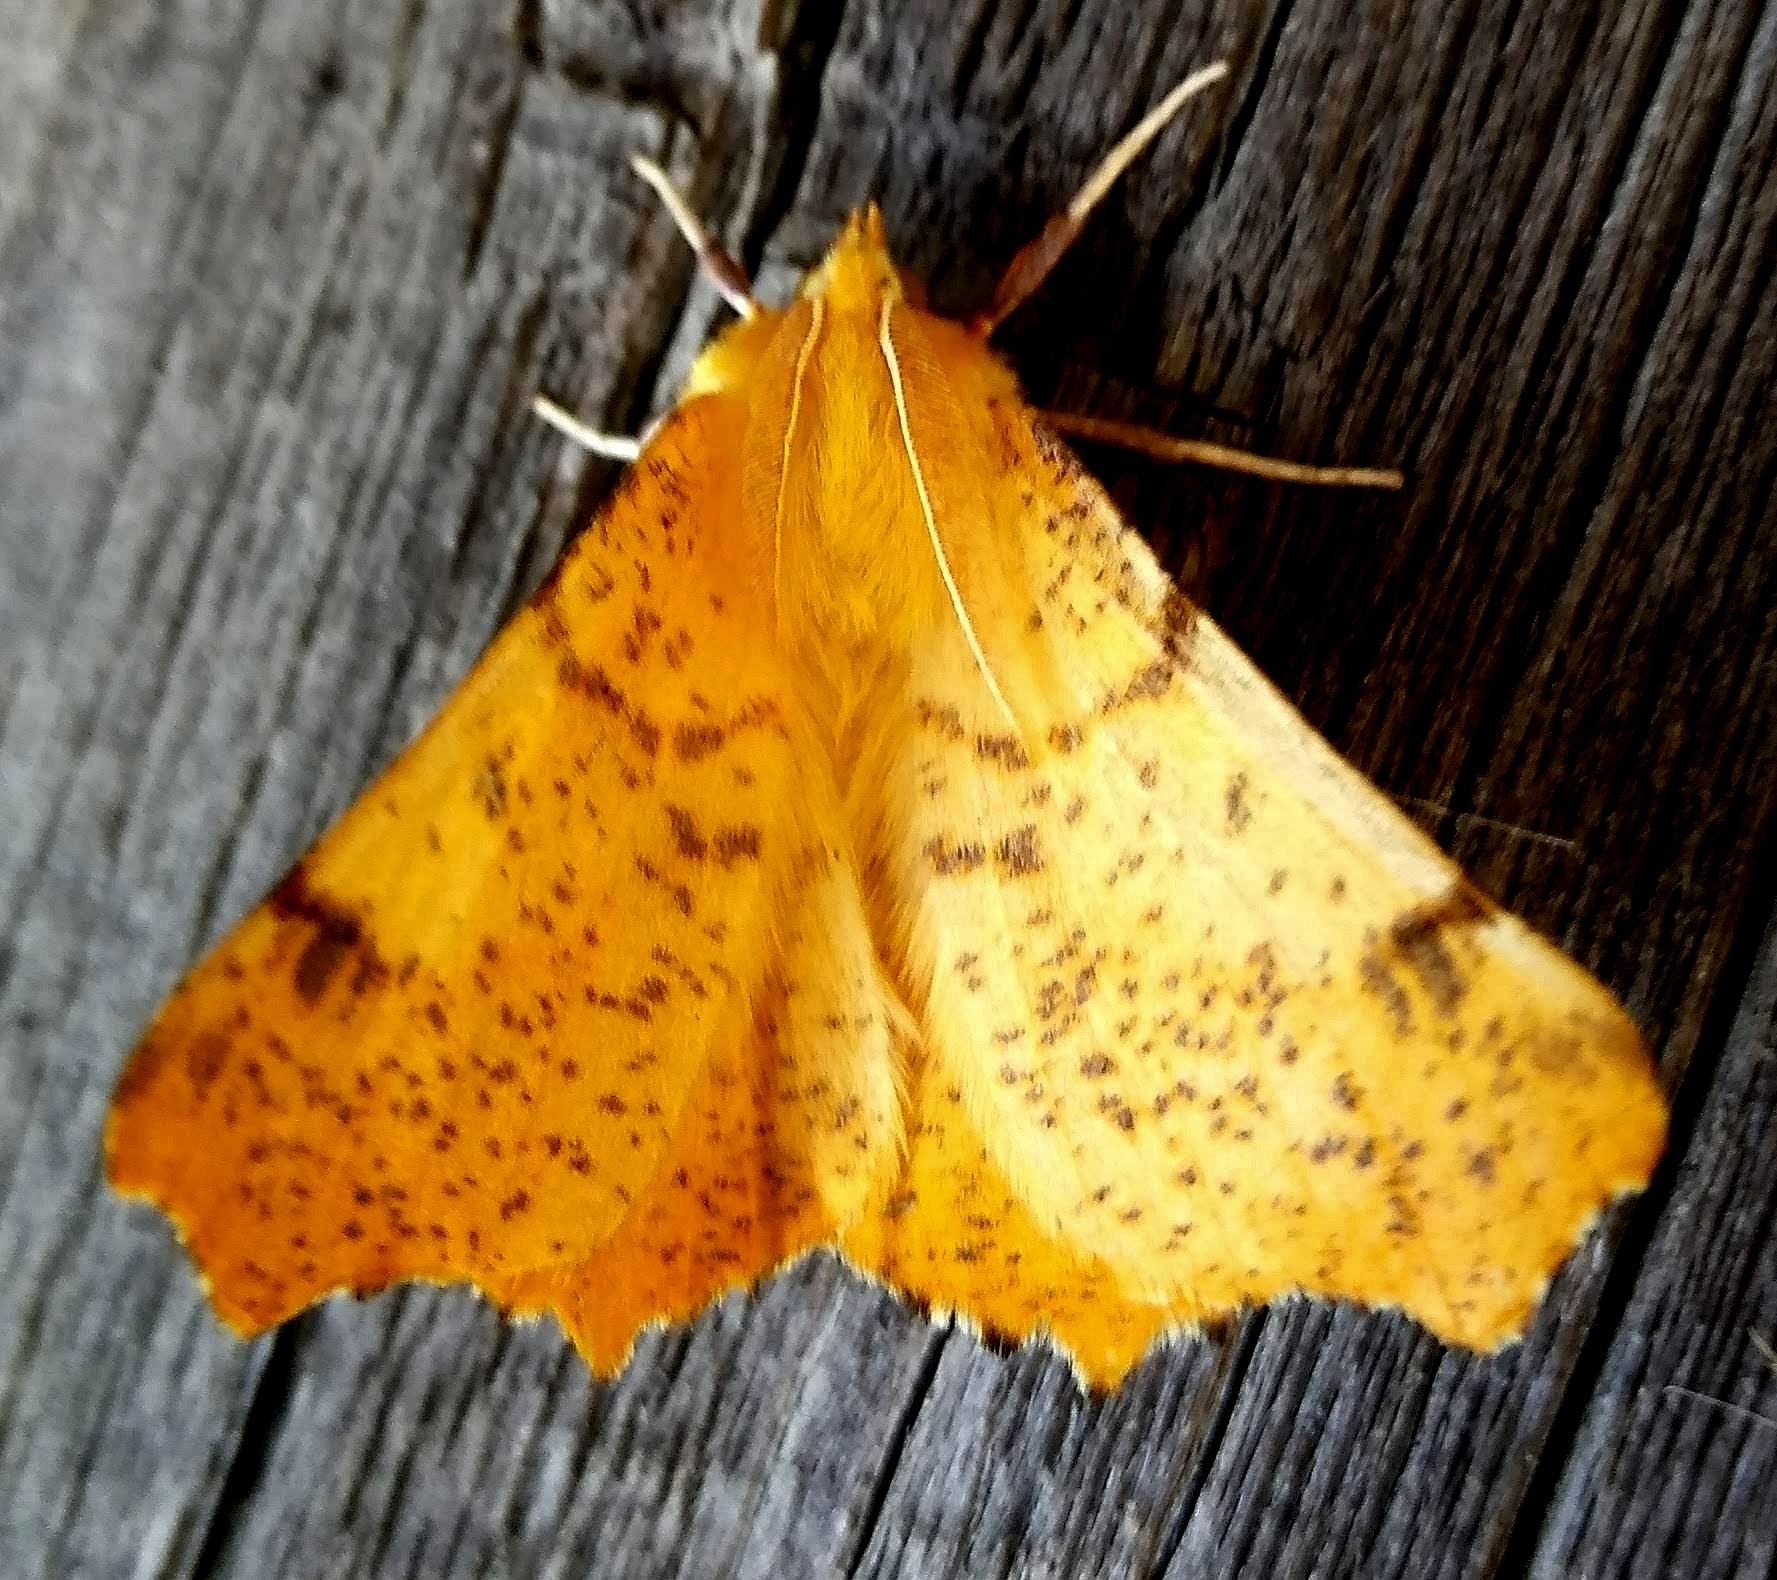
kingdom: Animalia
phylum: Arthropoda
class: Insecta
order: Lepidoptera
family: Geometridae
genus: Ennomos
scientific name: Ennomos autumnaria
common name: Large thorn
